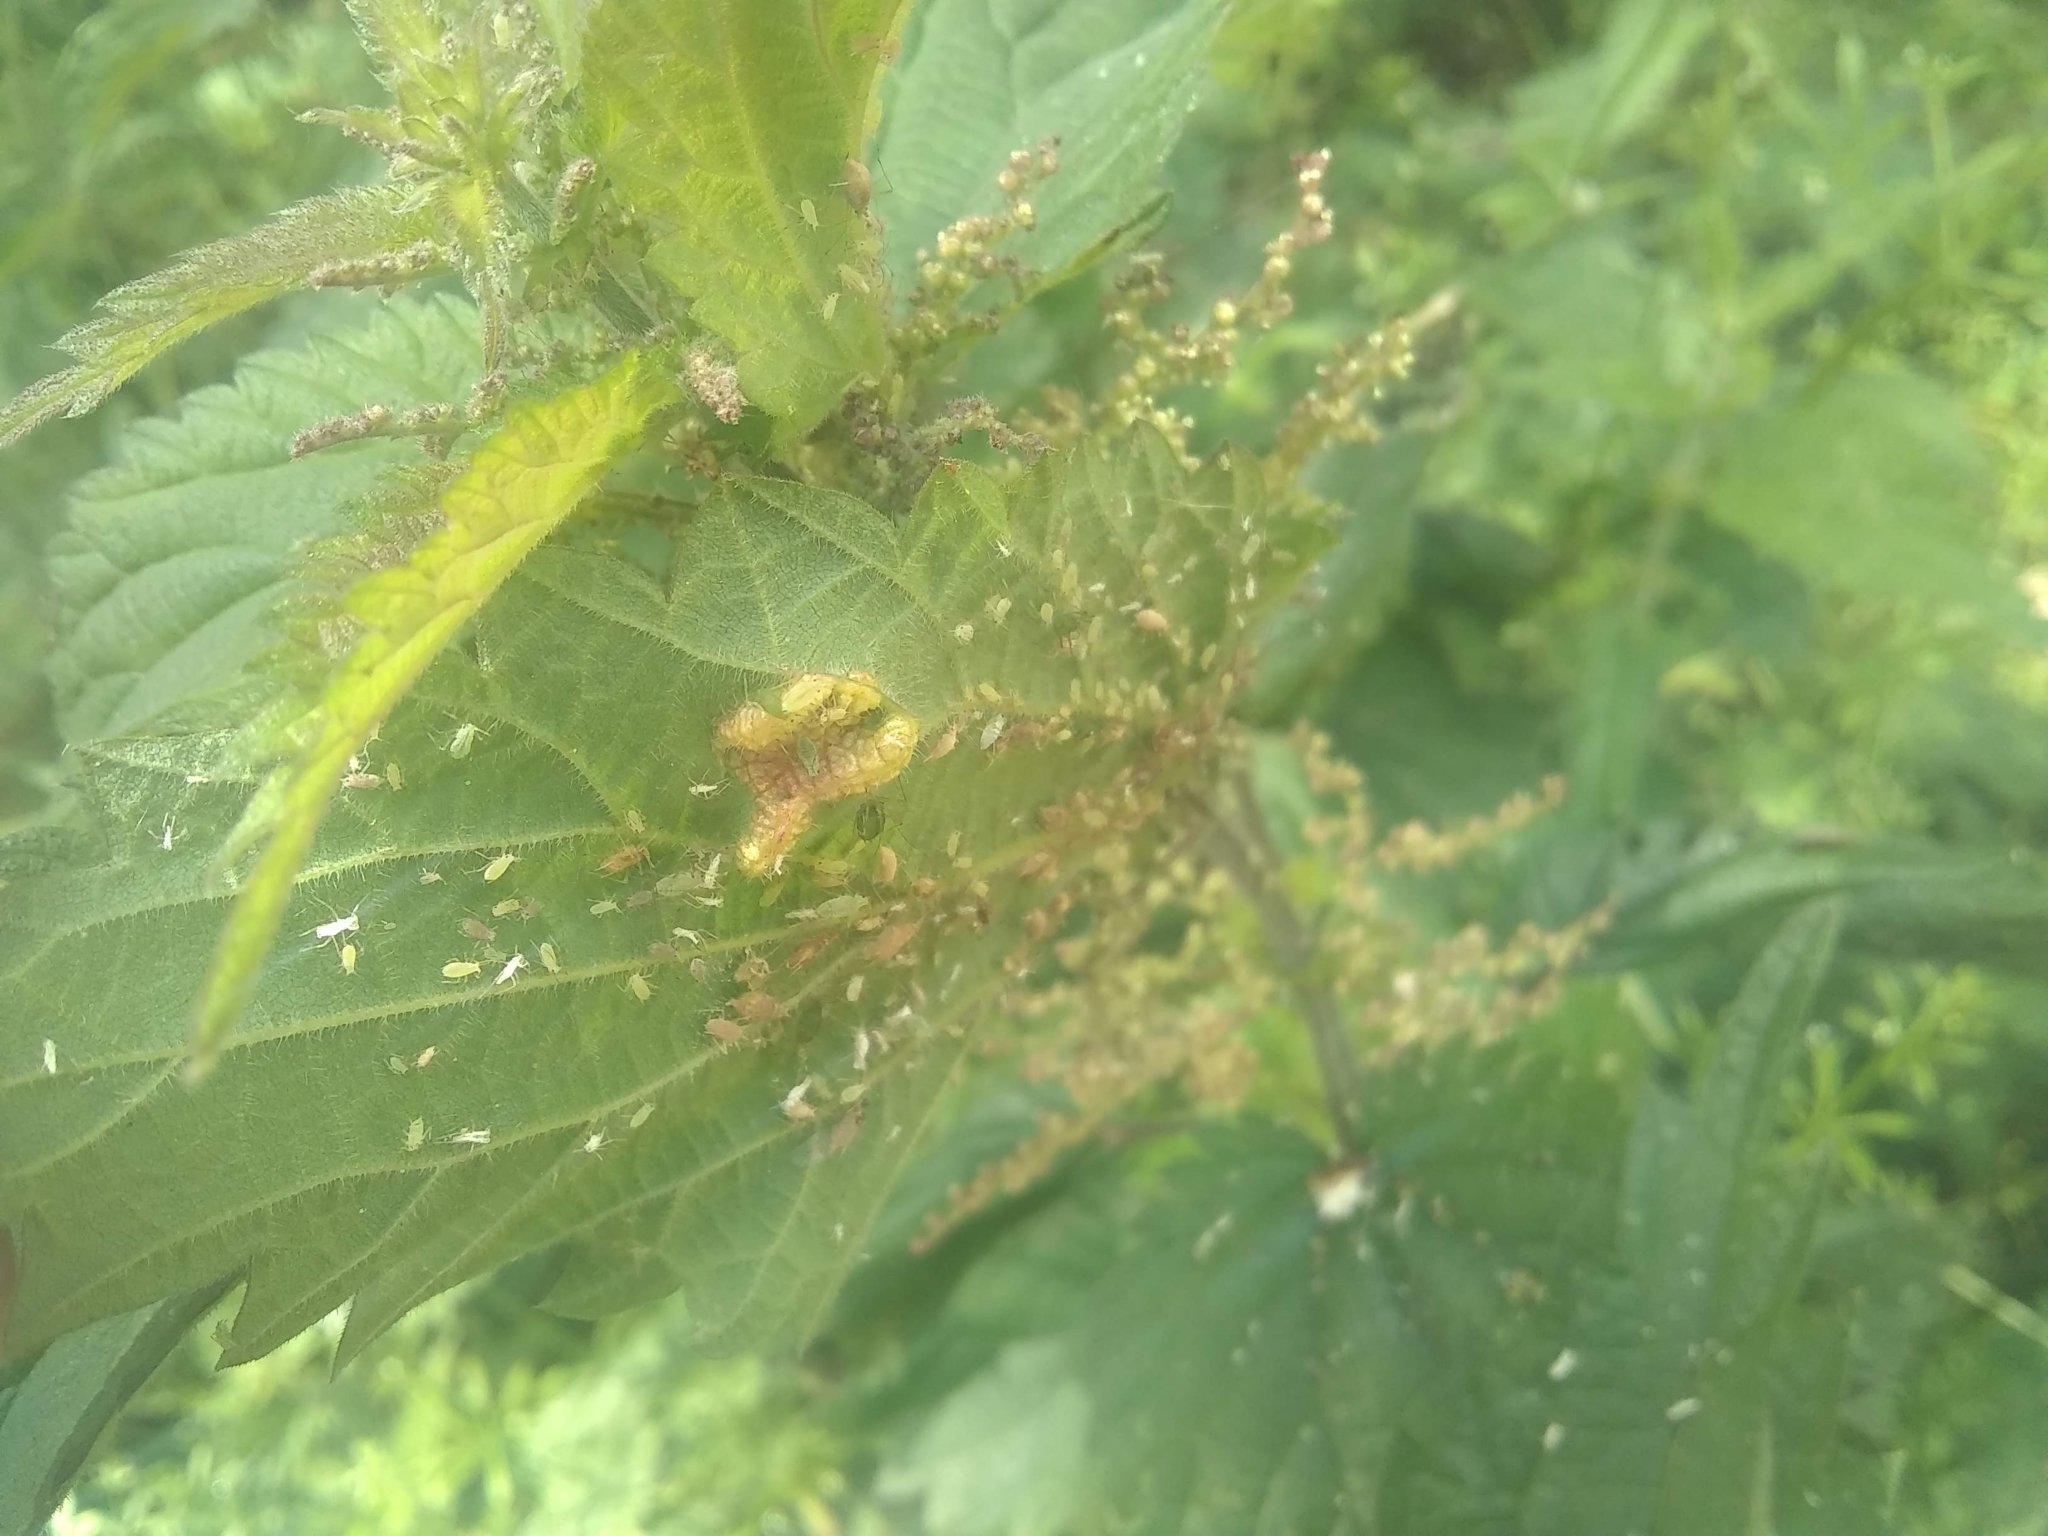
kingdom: Animalia
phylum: Arthropoda
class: Insecta
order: Diptera
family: Cecidomyiidae
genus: Dasineura
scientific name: Dasineura urticae
